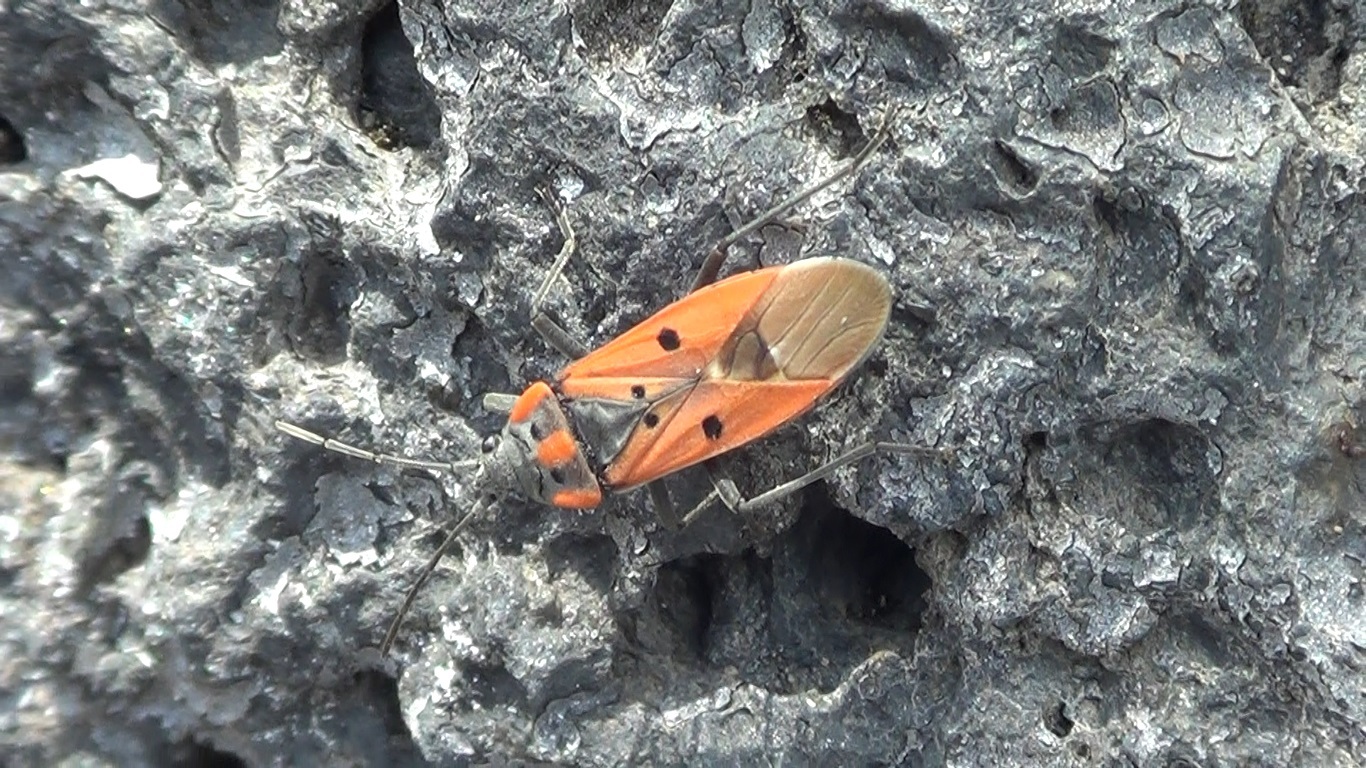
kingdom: Animalia
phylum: Arthropoda
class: Insecta
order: Hemiptera
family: Lygaeidae
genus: Lygaeus
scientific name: Lygaeus creticus
